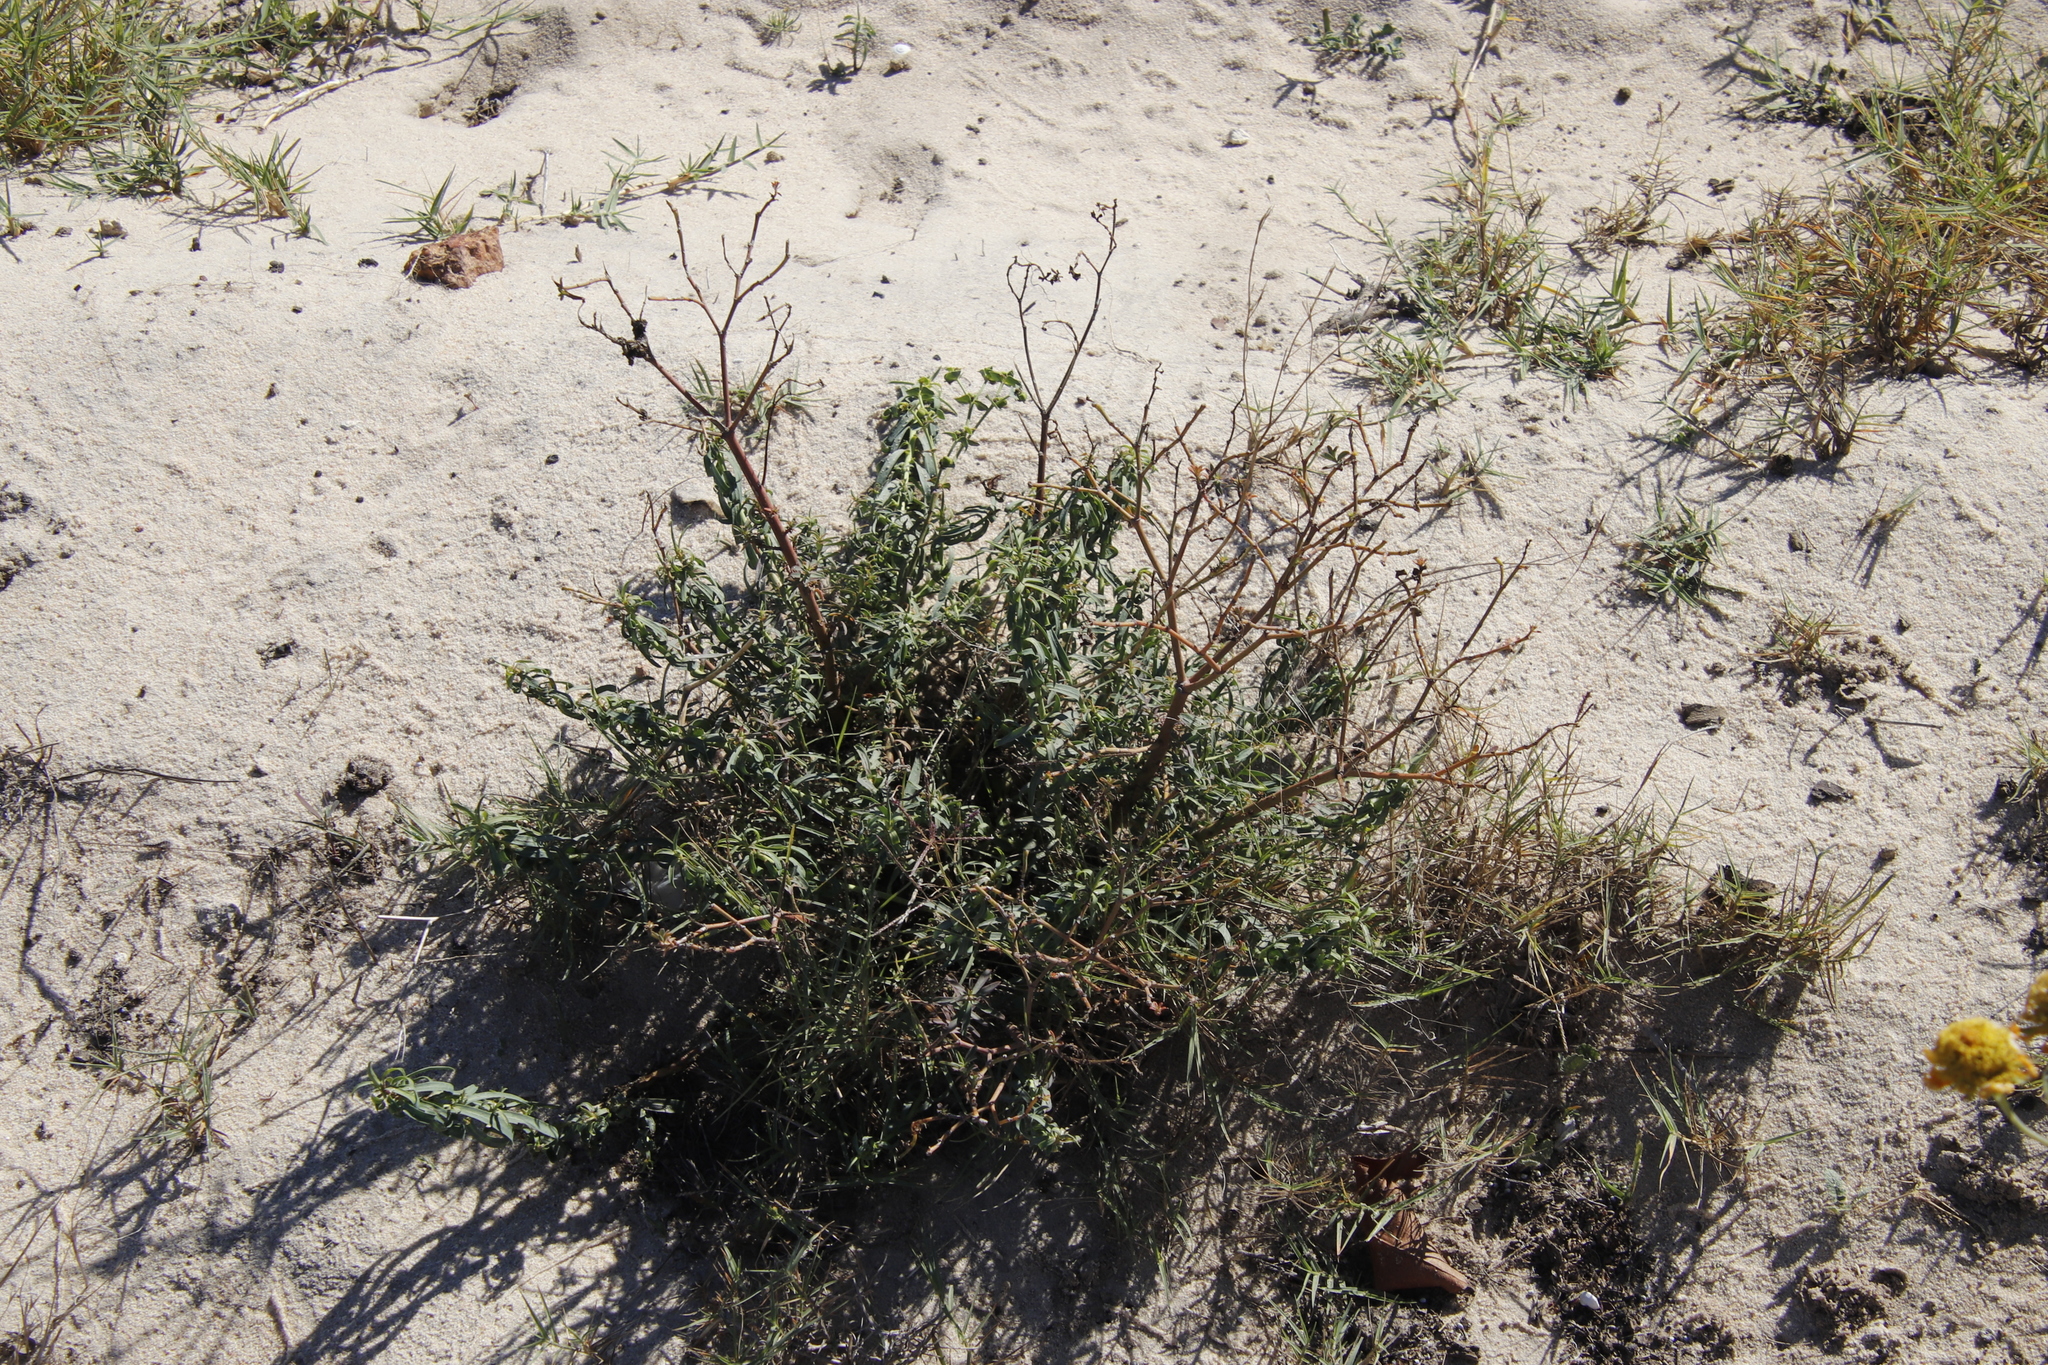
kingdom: Plantae
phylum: Tracheophyta
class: Magnoliopsida
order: Malpighiales
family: Euphorbiaceae
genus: Euphorbia
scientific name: Euphorbia terracina
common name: Geraldton carnation weed
